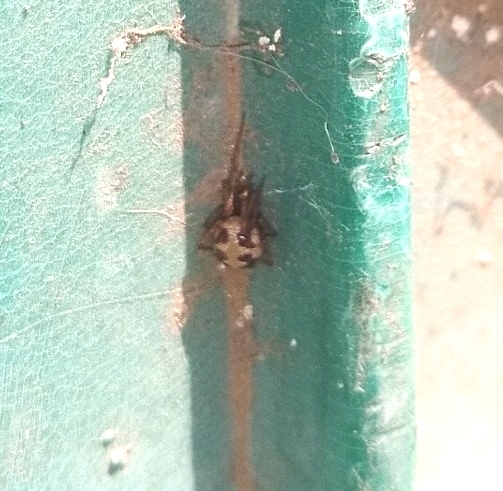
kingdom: Animalia
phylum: Arthropoda
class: Arachnida
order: Araneae
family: Theridiidae
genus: Steatoda
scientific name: Steatoda triangulosa
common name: Triangulate bud spider
